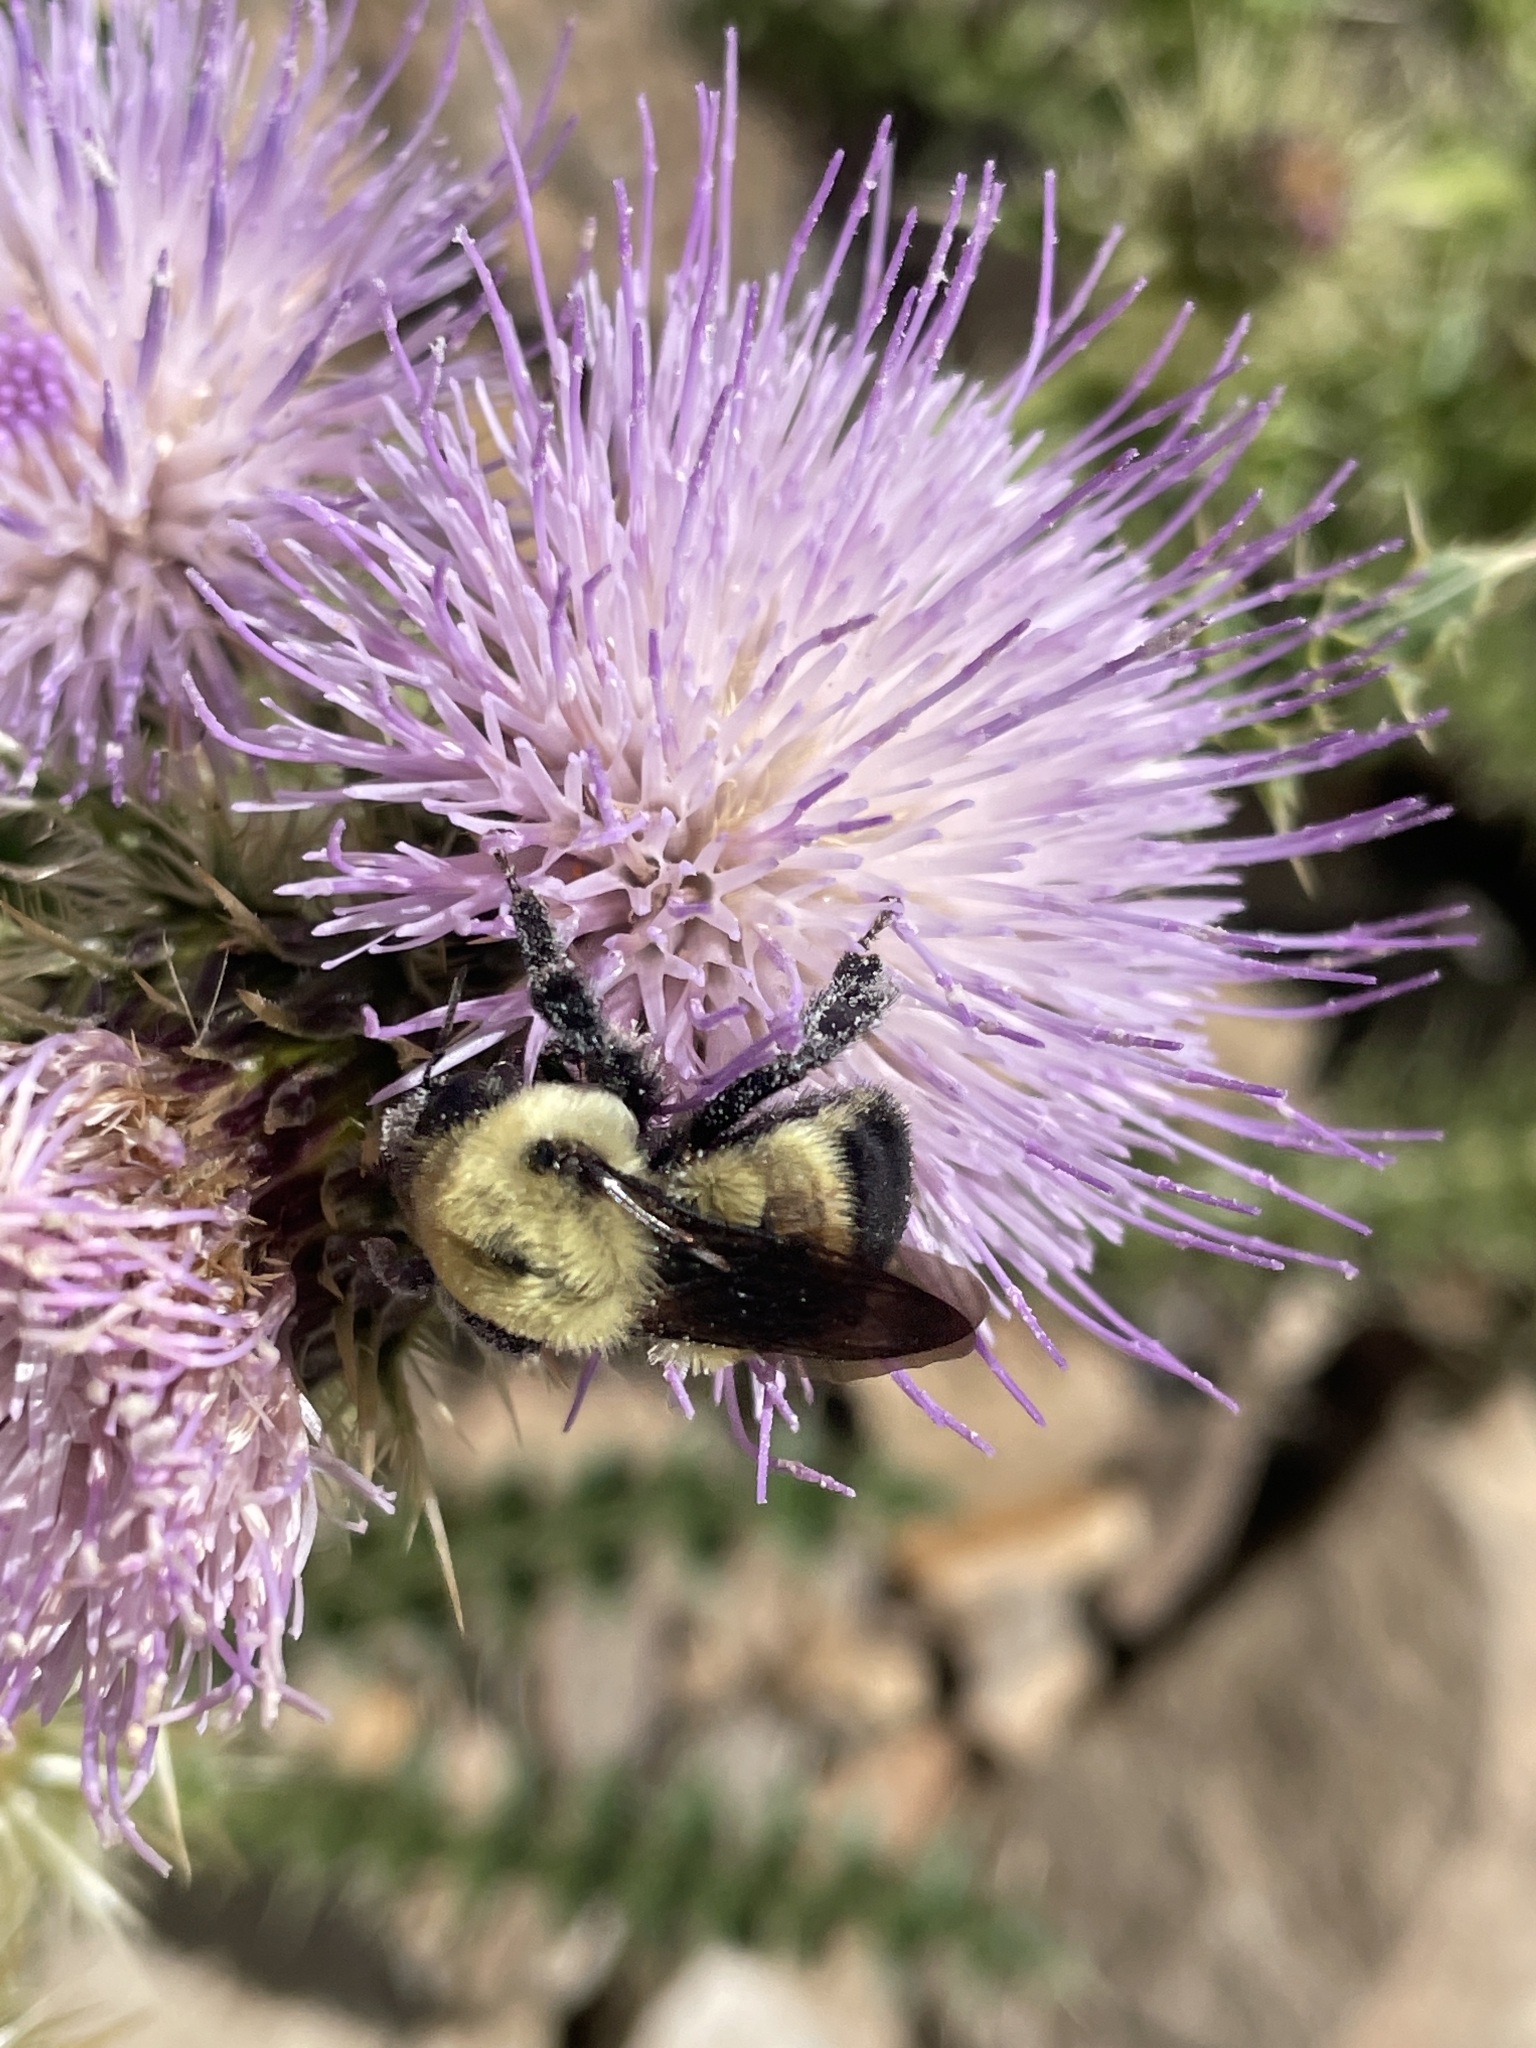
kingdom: Animalia
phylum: Arthropoda
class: Insecta
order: Hymenoptera
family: Apidae
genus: Bombus
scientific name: Bombus griseocollis
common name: Brown-belted bumble bee
